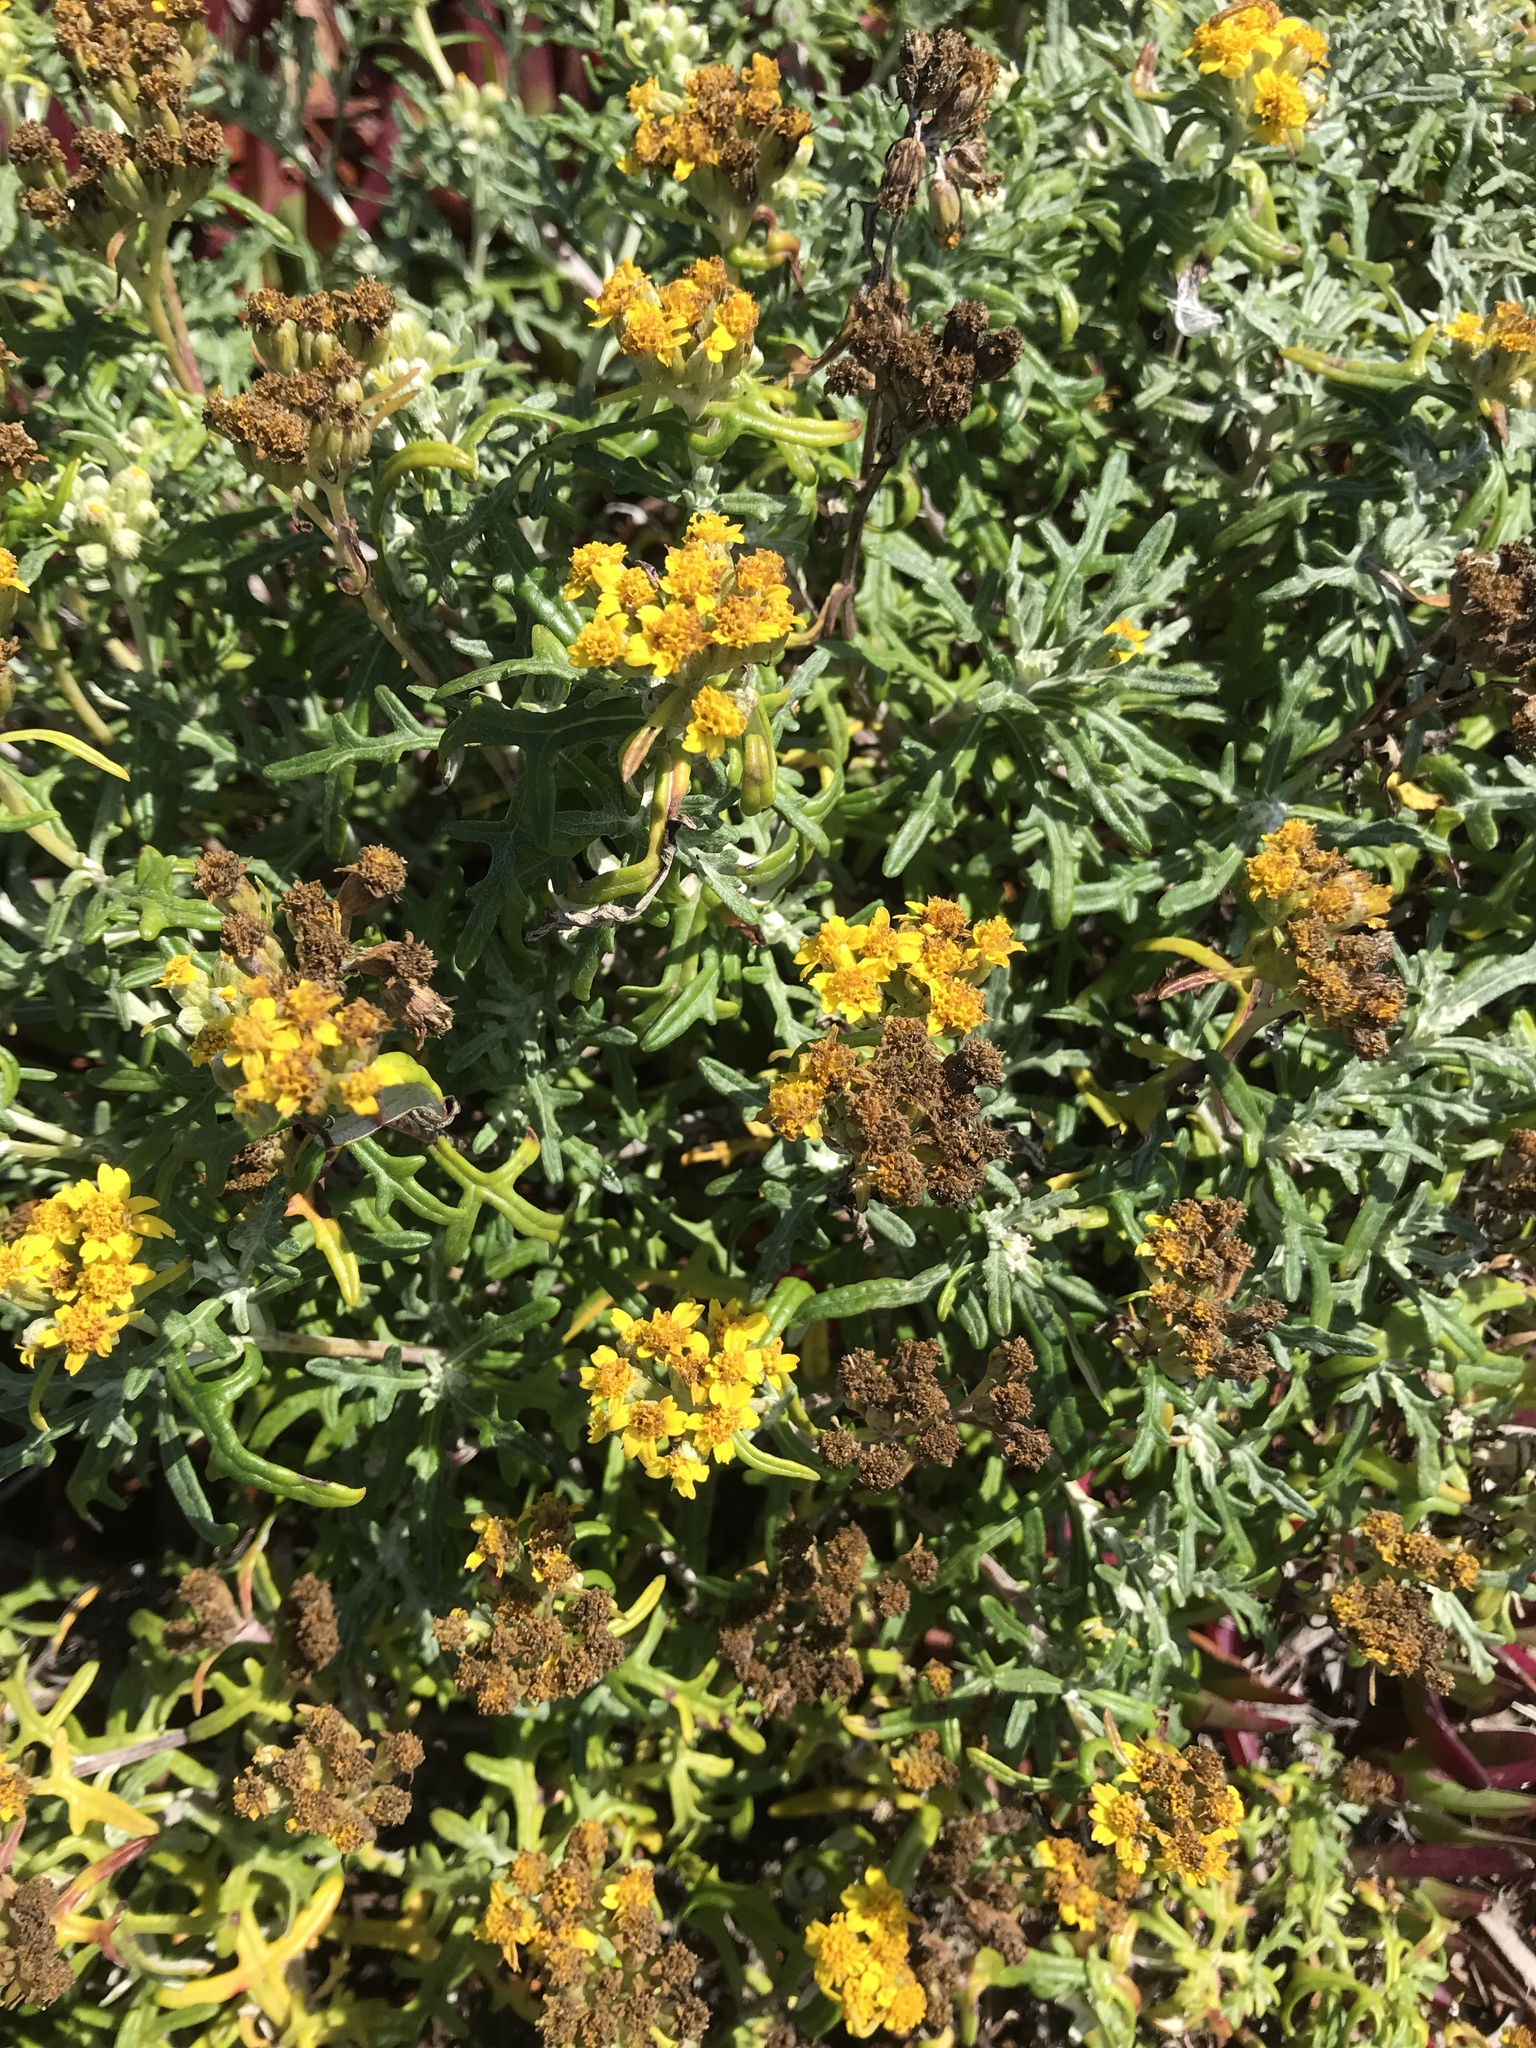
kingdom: Plantae
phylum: Tracheophyta
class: Magnoliopsida
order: Asterales
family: Asteraceae
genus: Eriophyllum
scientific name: Eriophyllum staechadifolium
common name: Lizardtail
